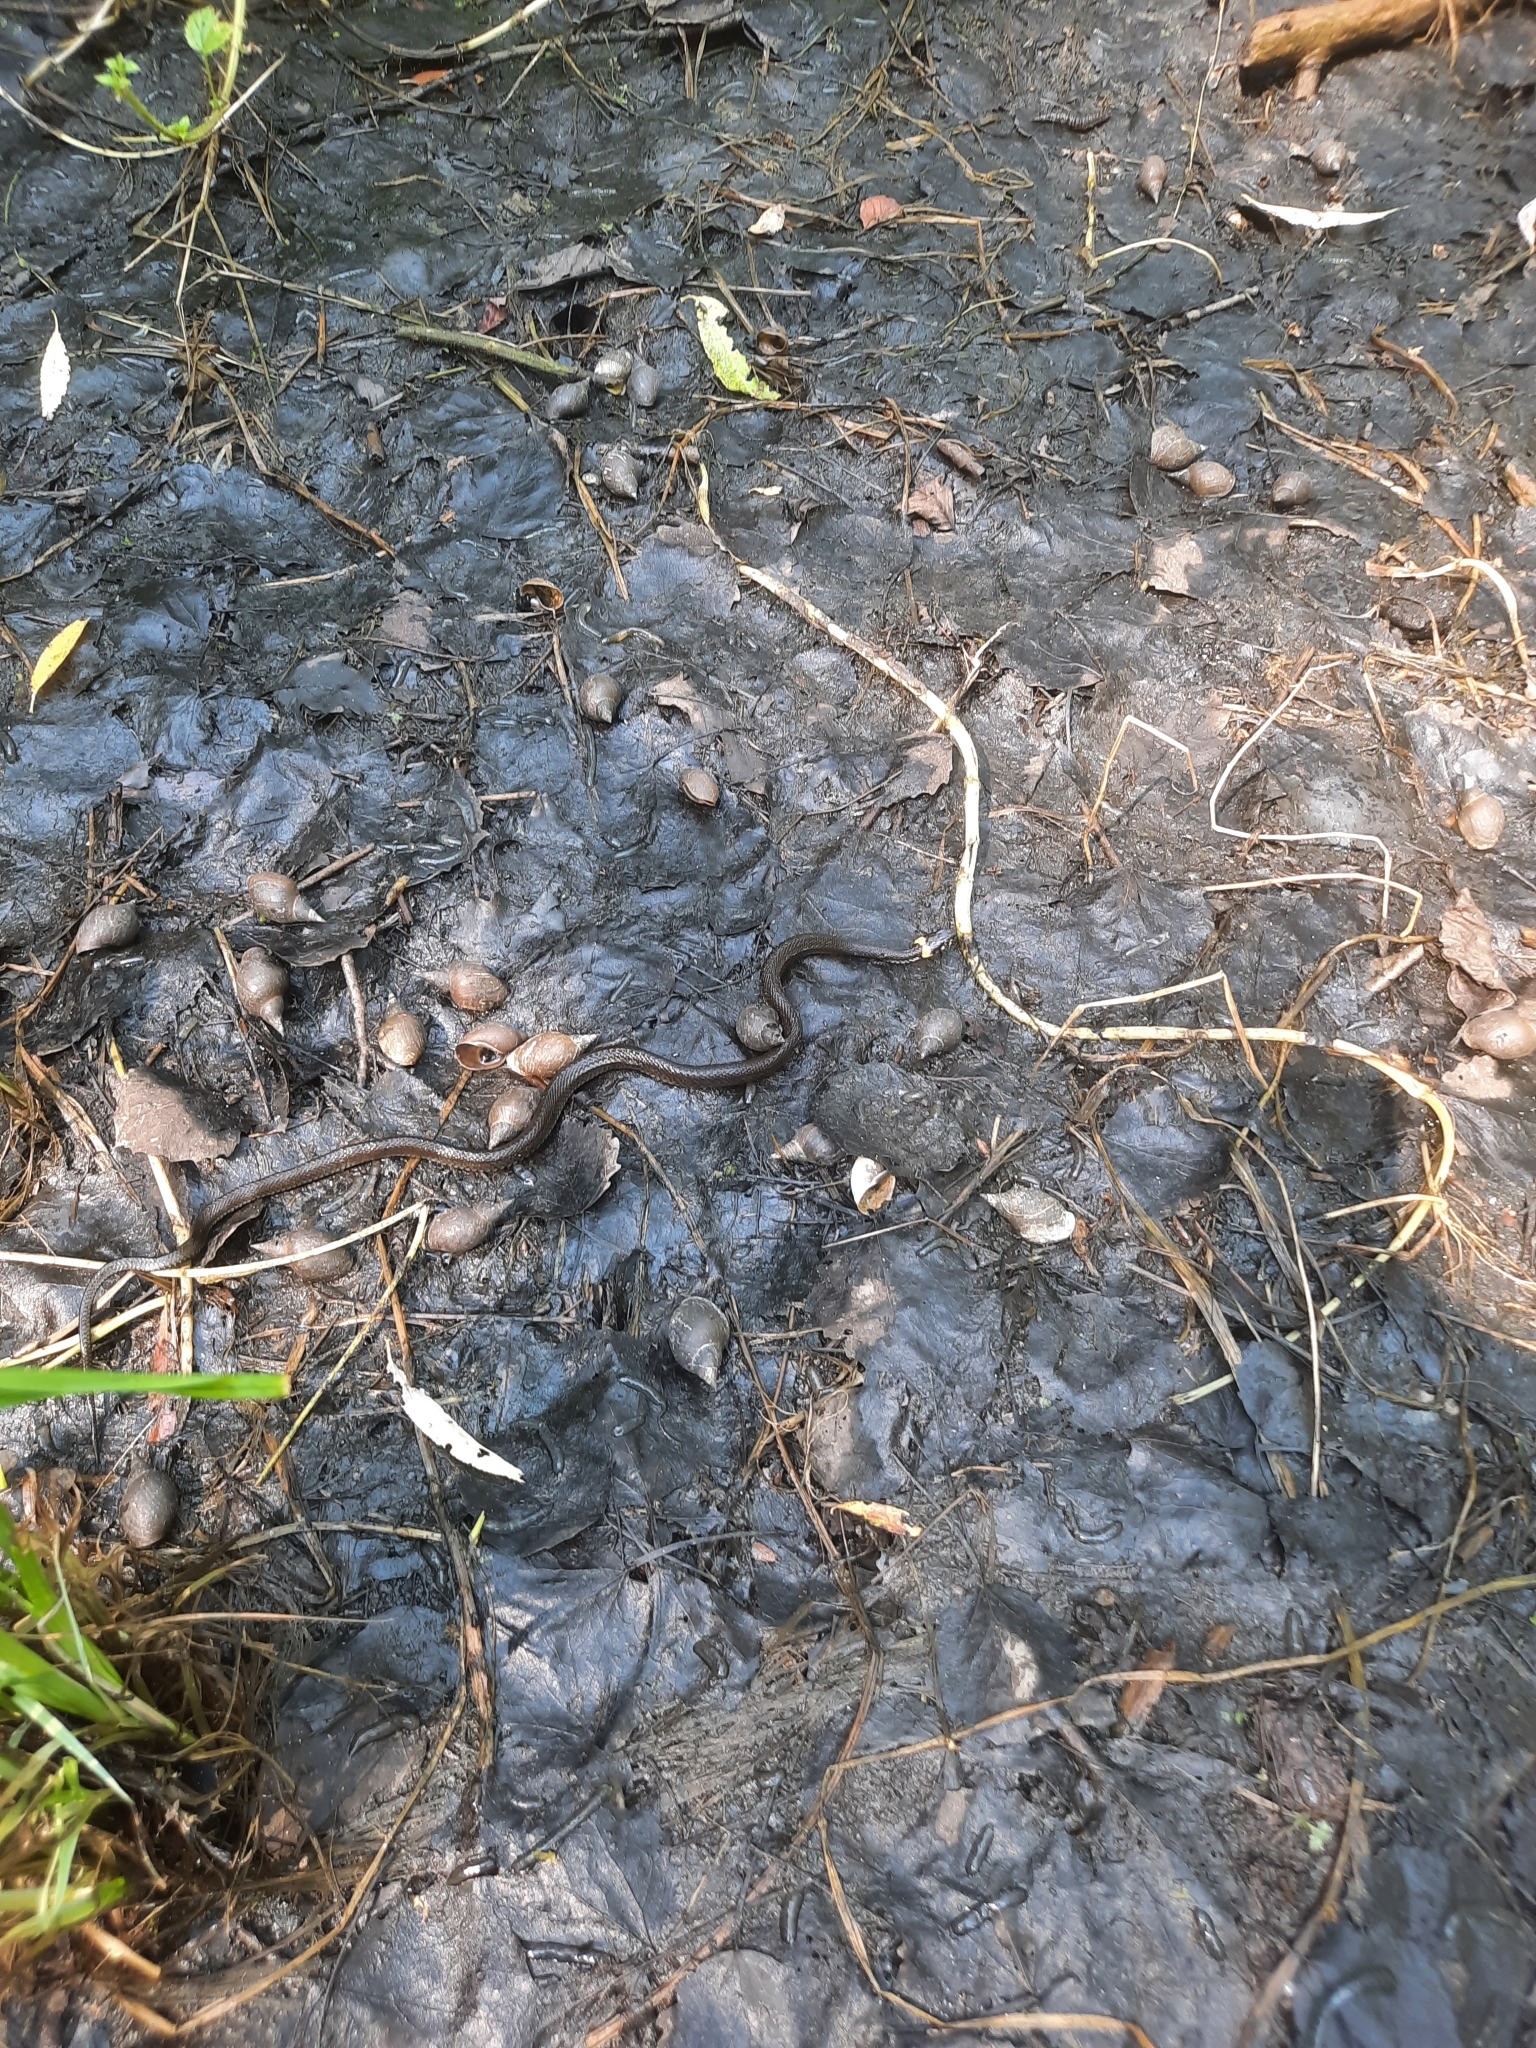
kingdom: Animalia
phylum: Chordata
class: Squamata
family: Colubridae
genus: Natrix
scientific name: Natrix natrix
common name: Grass snake
